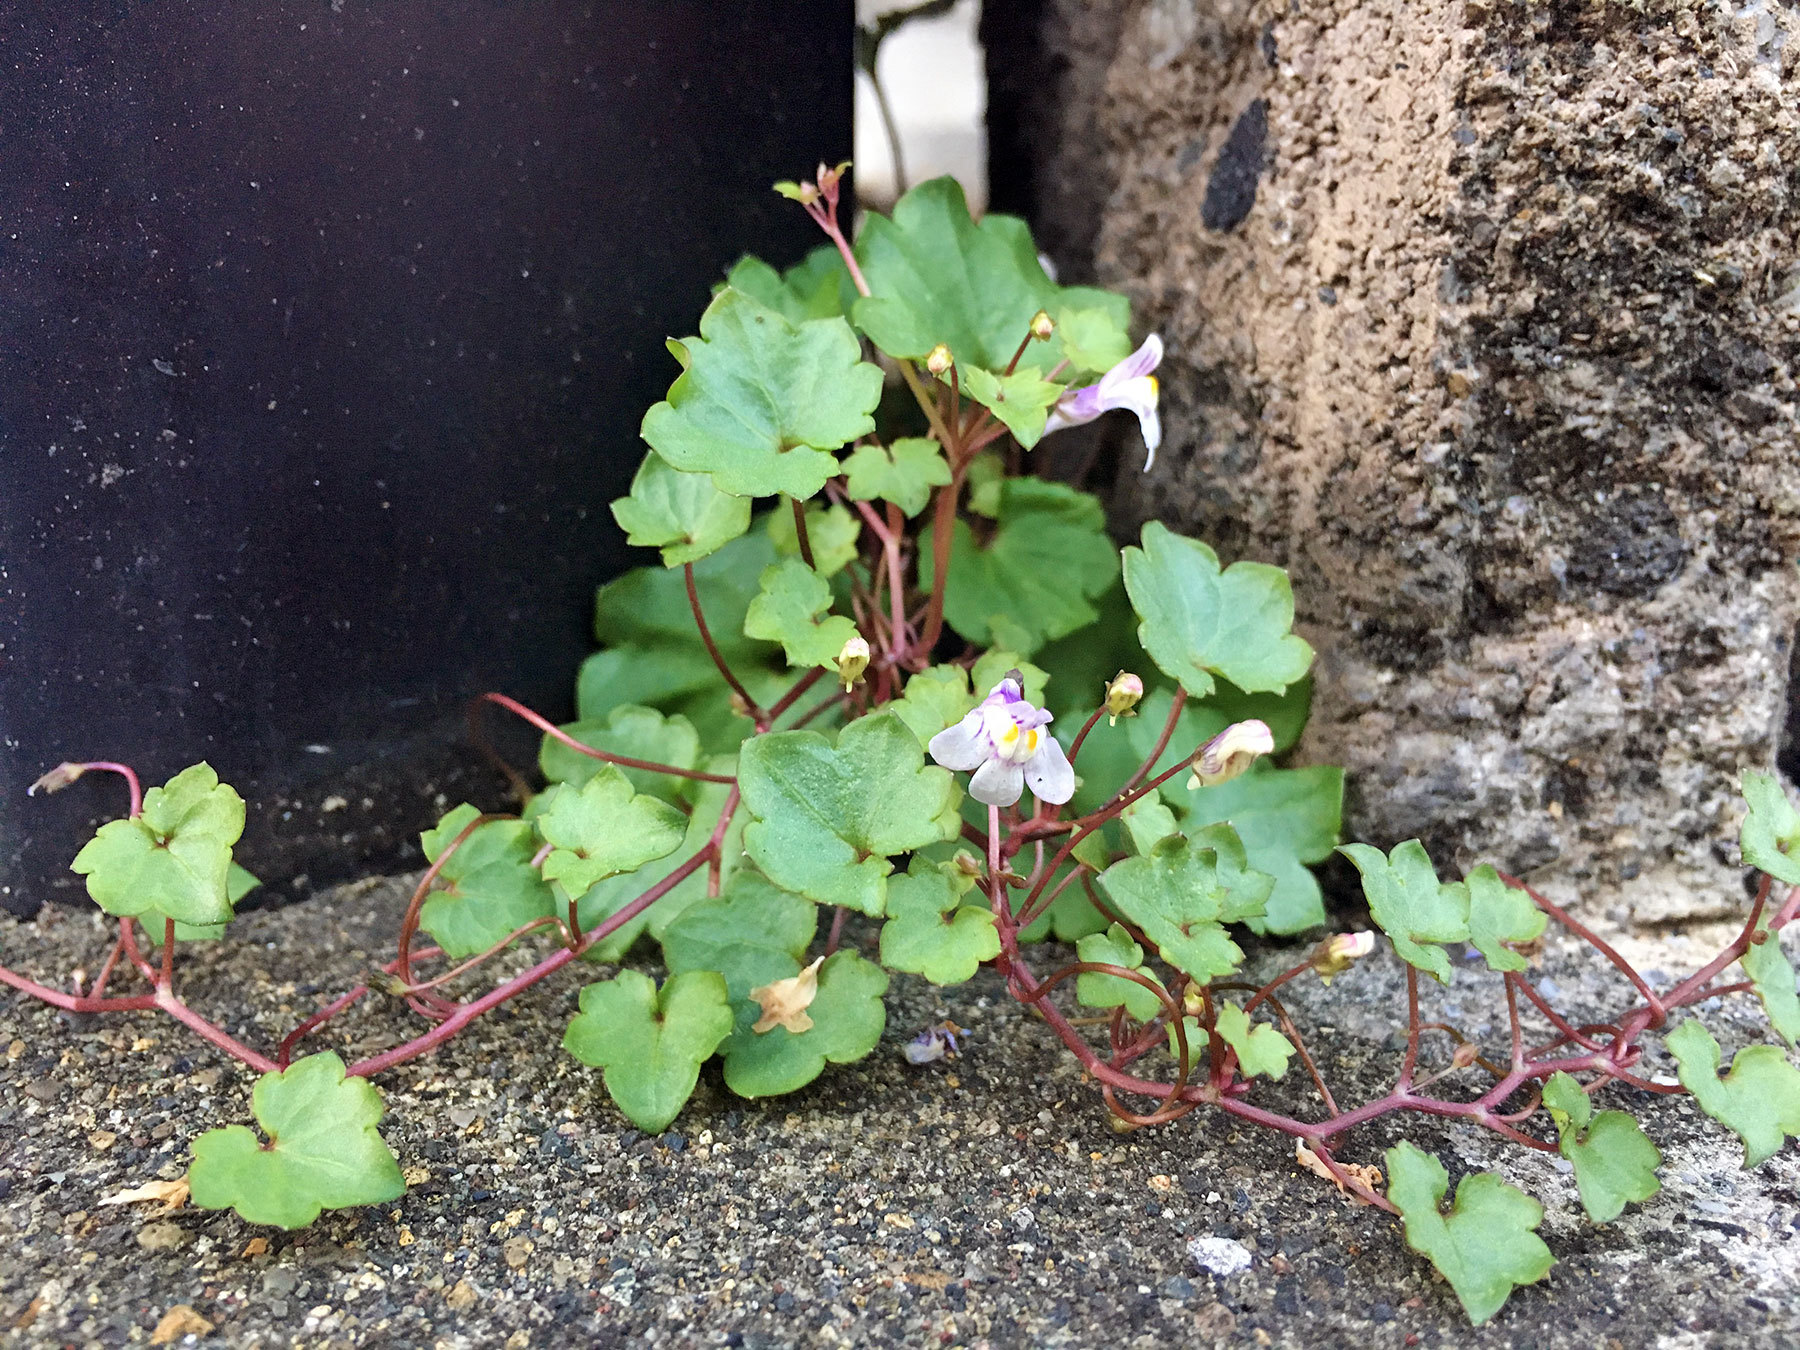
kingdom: Plantae
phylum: Tracheophyta
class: Magnoliopsida
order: Lamiales
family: Plantaginaceae
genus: Cymbalaria
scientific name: Cymbalaria muralis
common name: Ivy-leaved toadflax
